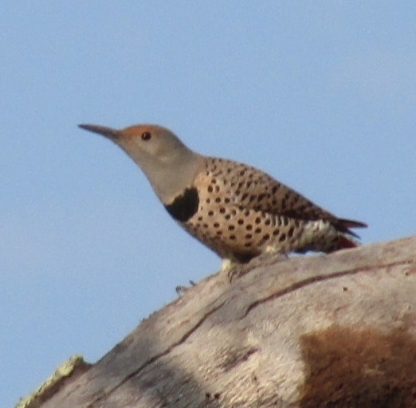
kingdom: Animalia
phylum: Chordata
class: Aves
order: Piciformes
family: Picidae
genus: Colaptes
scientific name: Colaptes auratus
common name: Northern flicker
